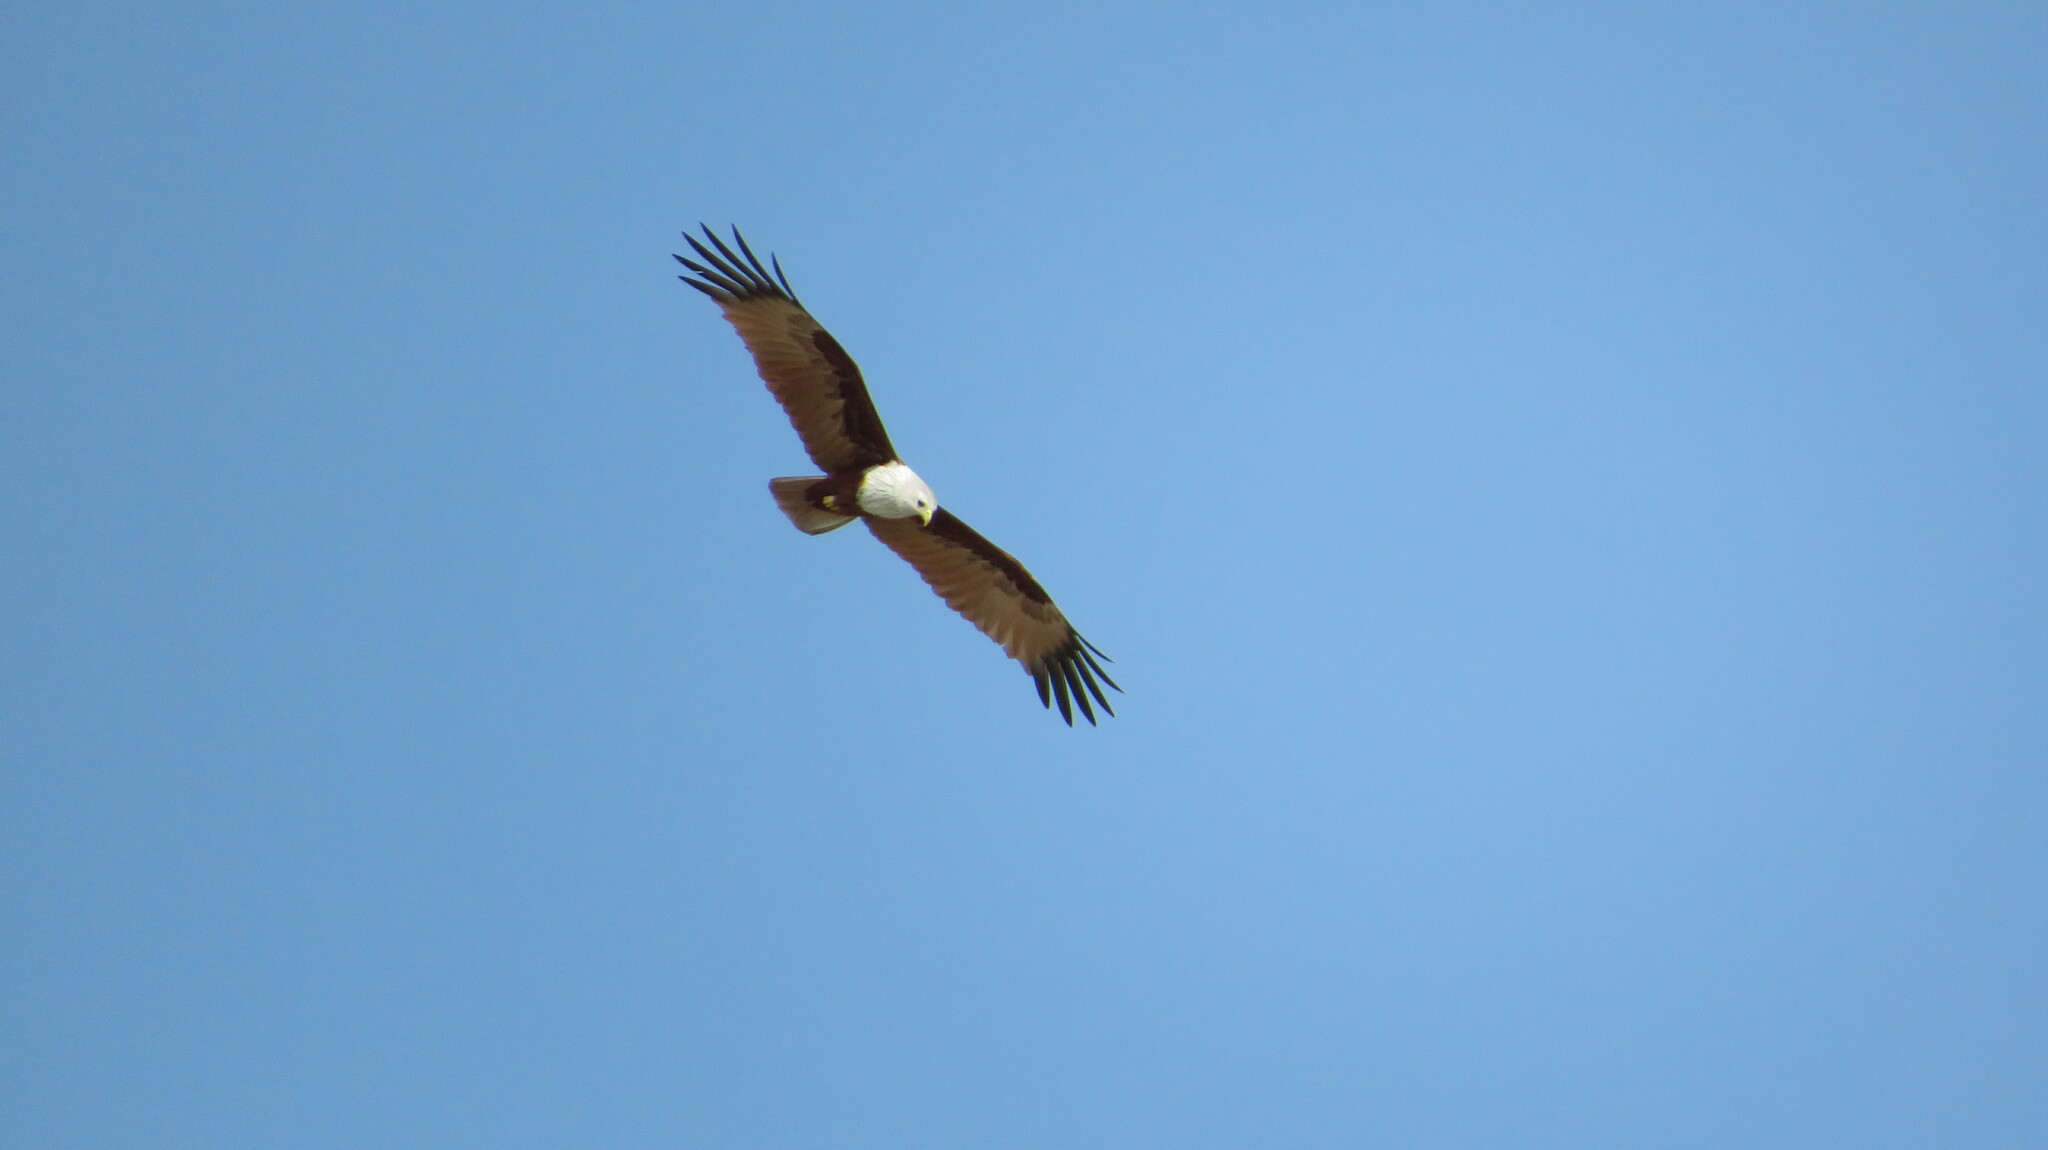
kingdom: Animalia
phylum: Chordata
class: Aves
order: Accipitriformes
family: Accipitridae
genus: Haliastur
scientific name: Haliastur indus
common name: Brahminy kite
